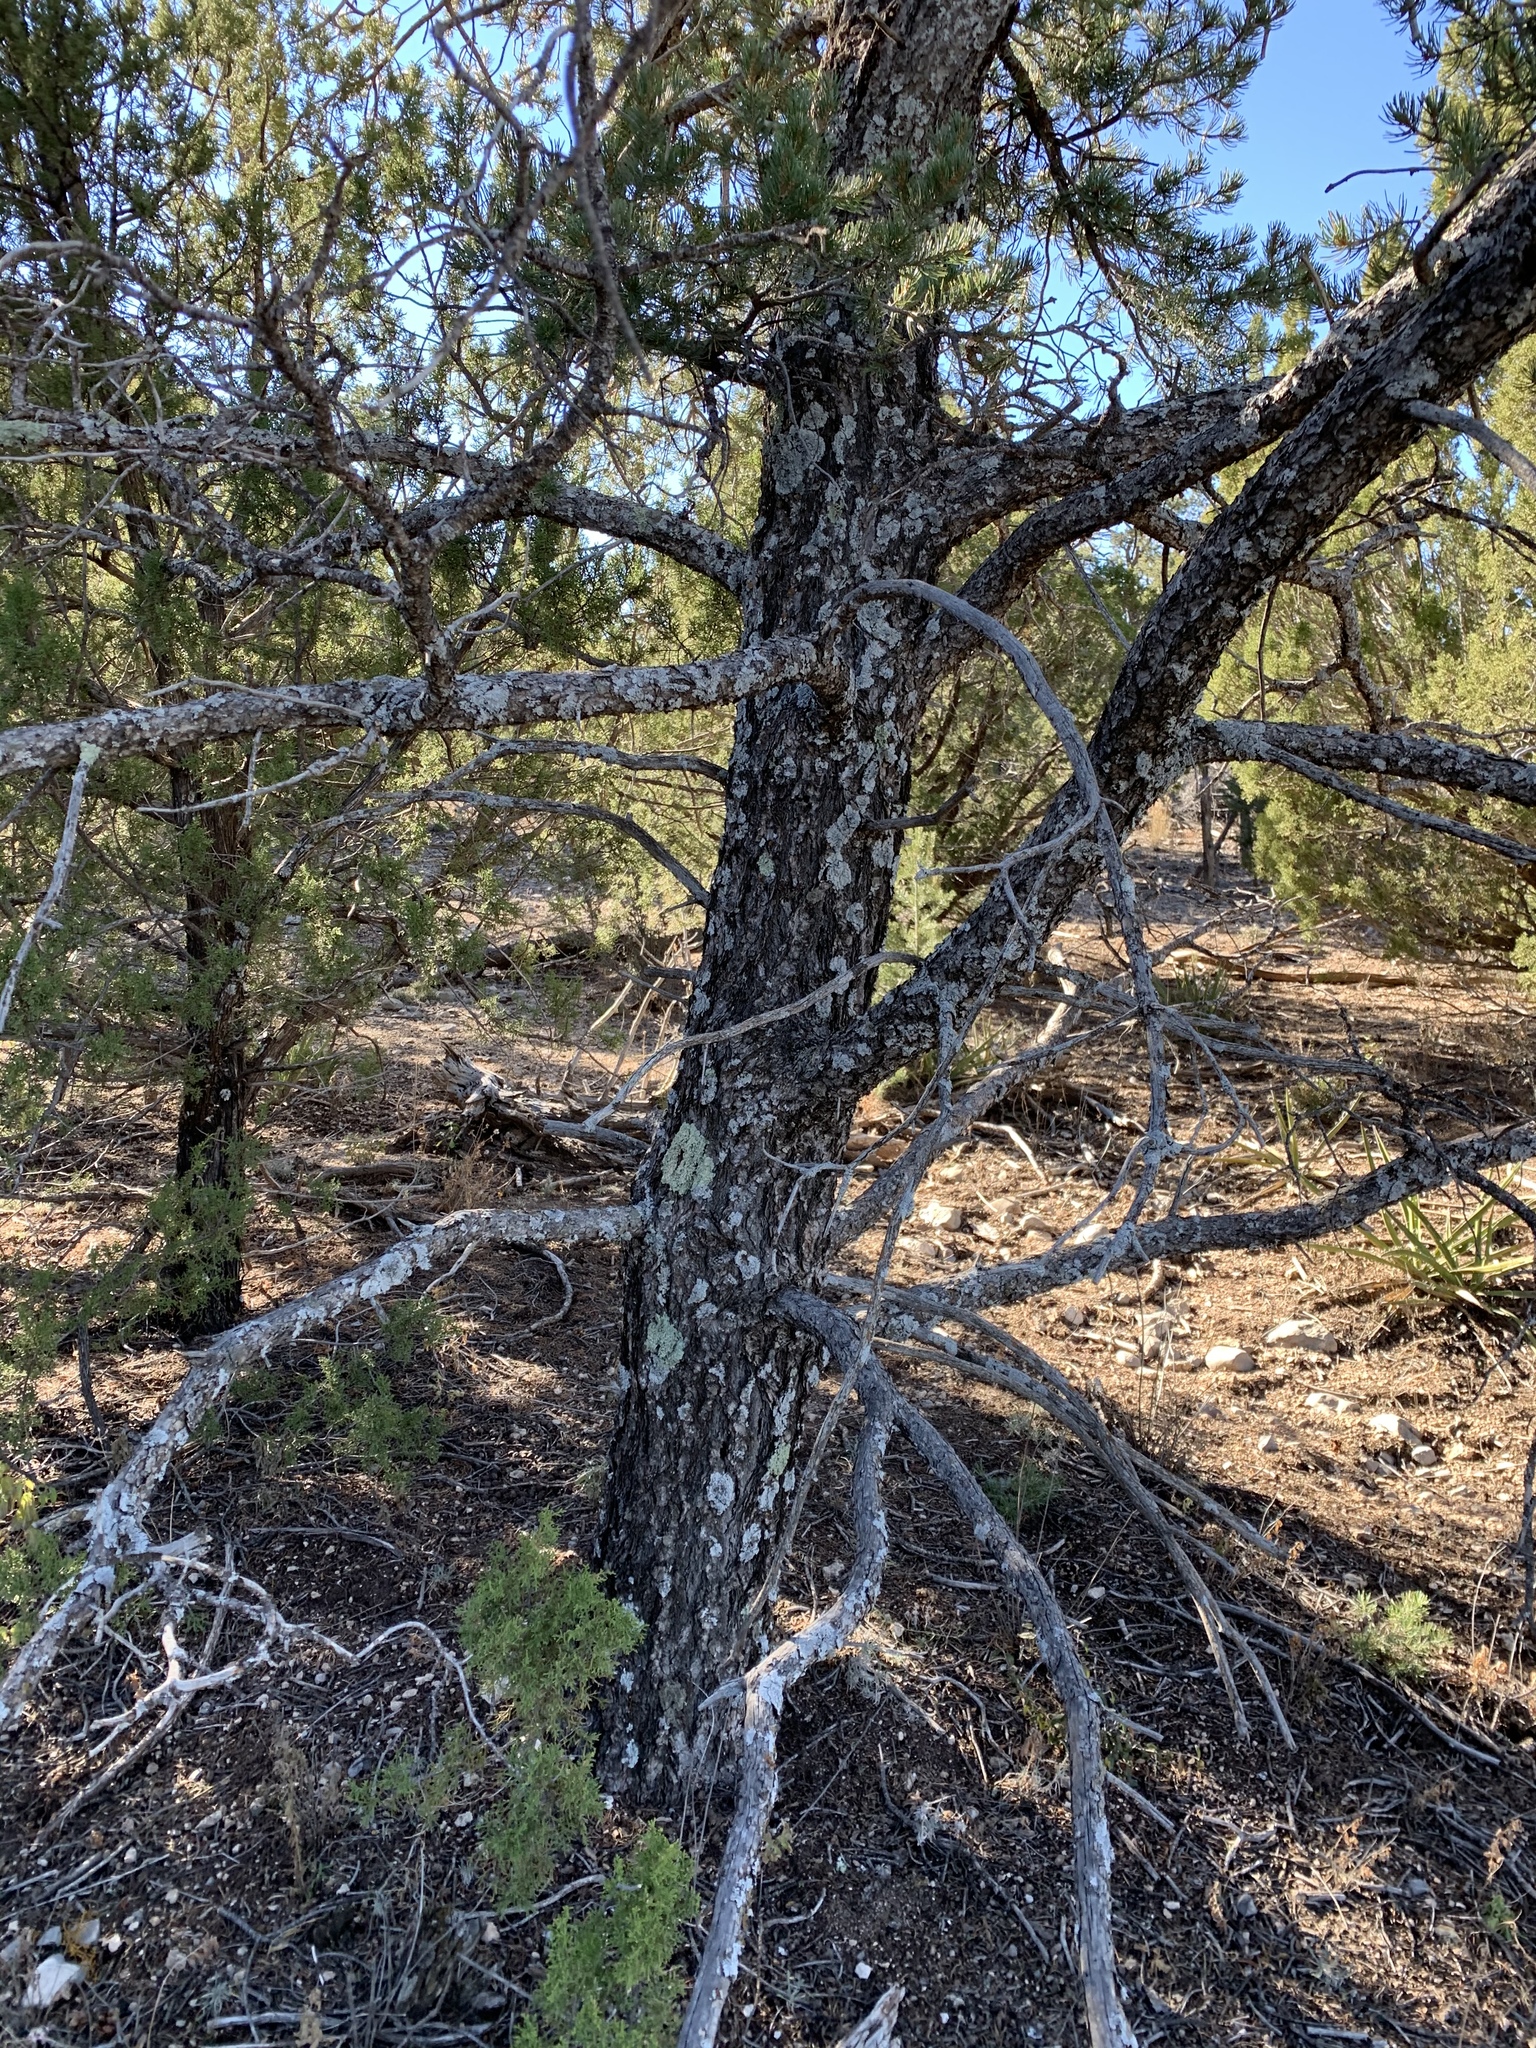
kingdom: Plantae
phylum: Tracheophyta
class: Pinopsida
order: Pinales
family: Pinaceae
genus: Pinus
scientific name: Pinus edulis
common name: Colorado pinyon
